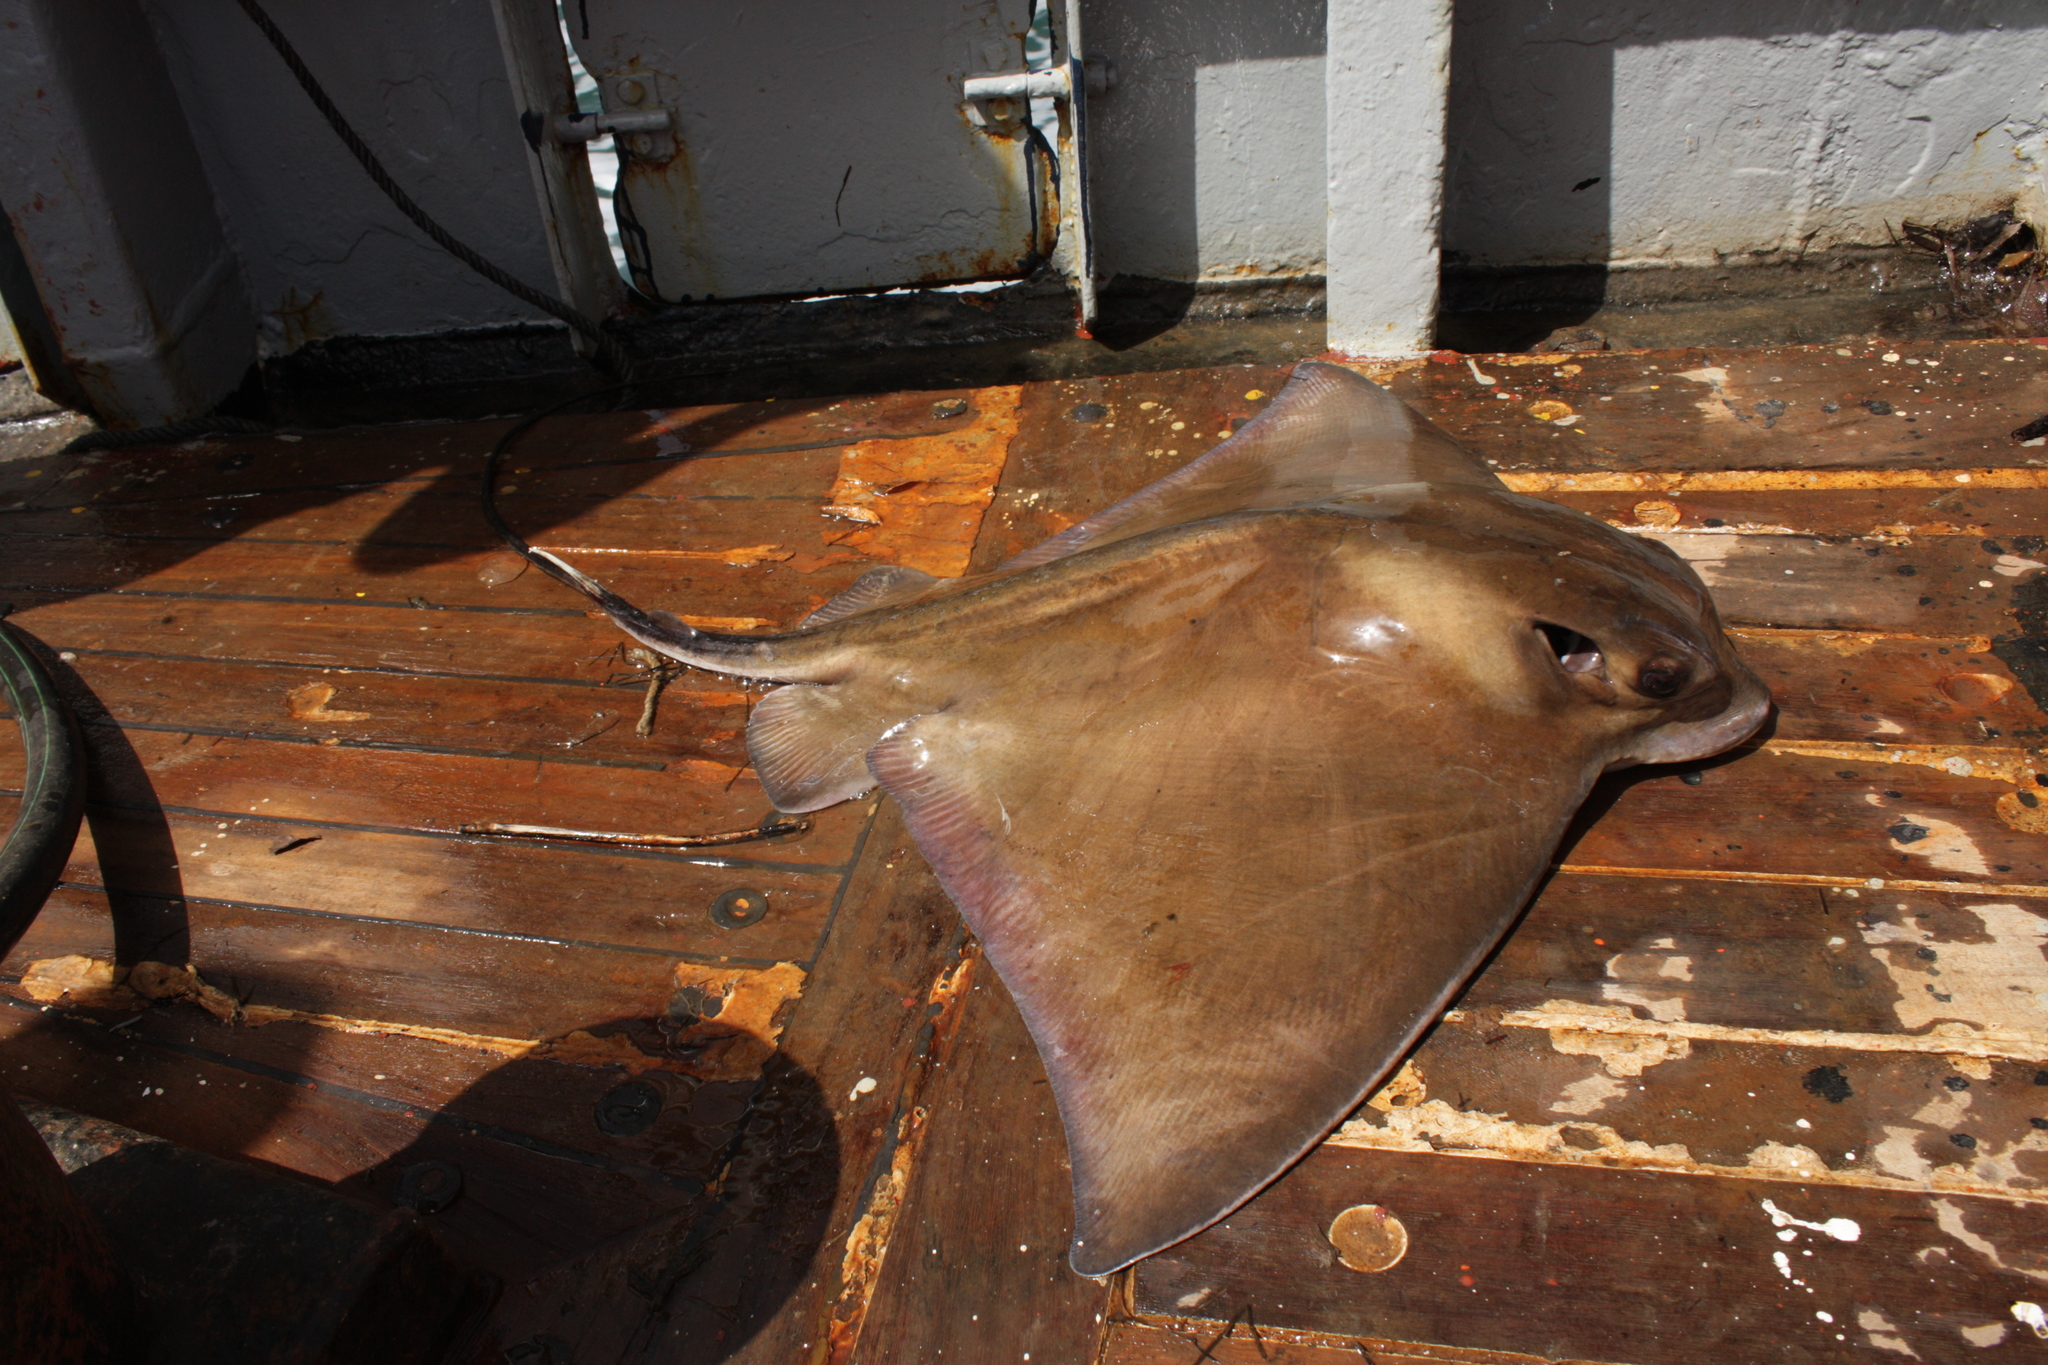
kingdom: Animalia
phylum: Chordata
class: Elasmobranchii
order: Myliobatiformes
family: Myliobatidae
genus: Myliobatis
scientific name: Myliobatis aquila
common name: Eagle ray
